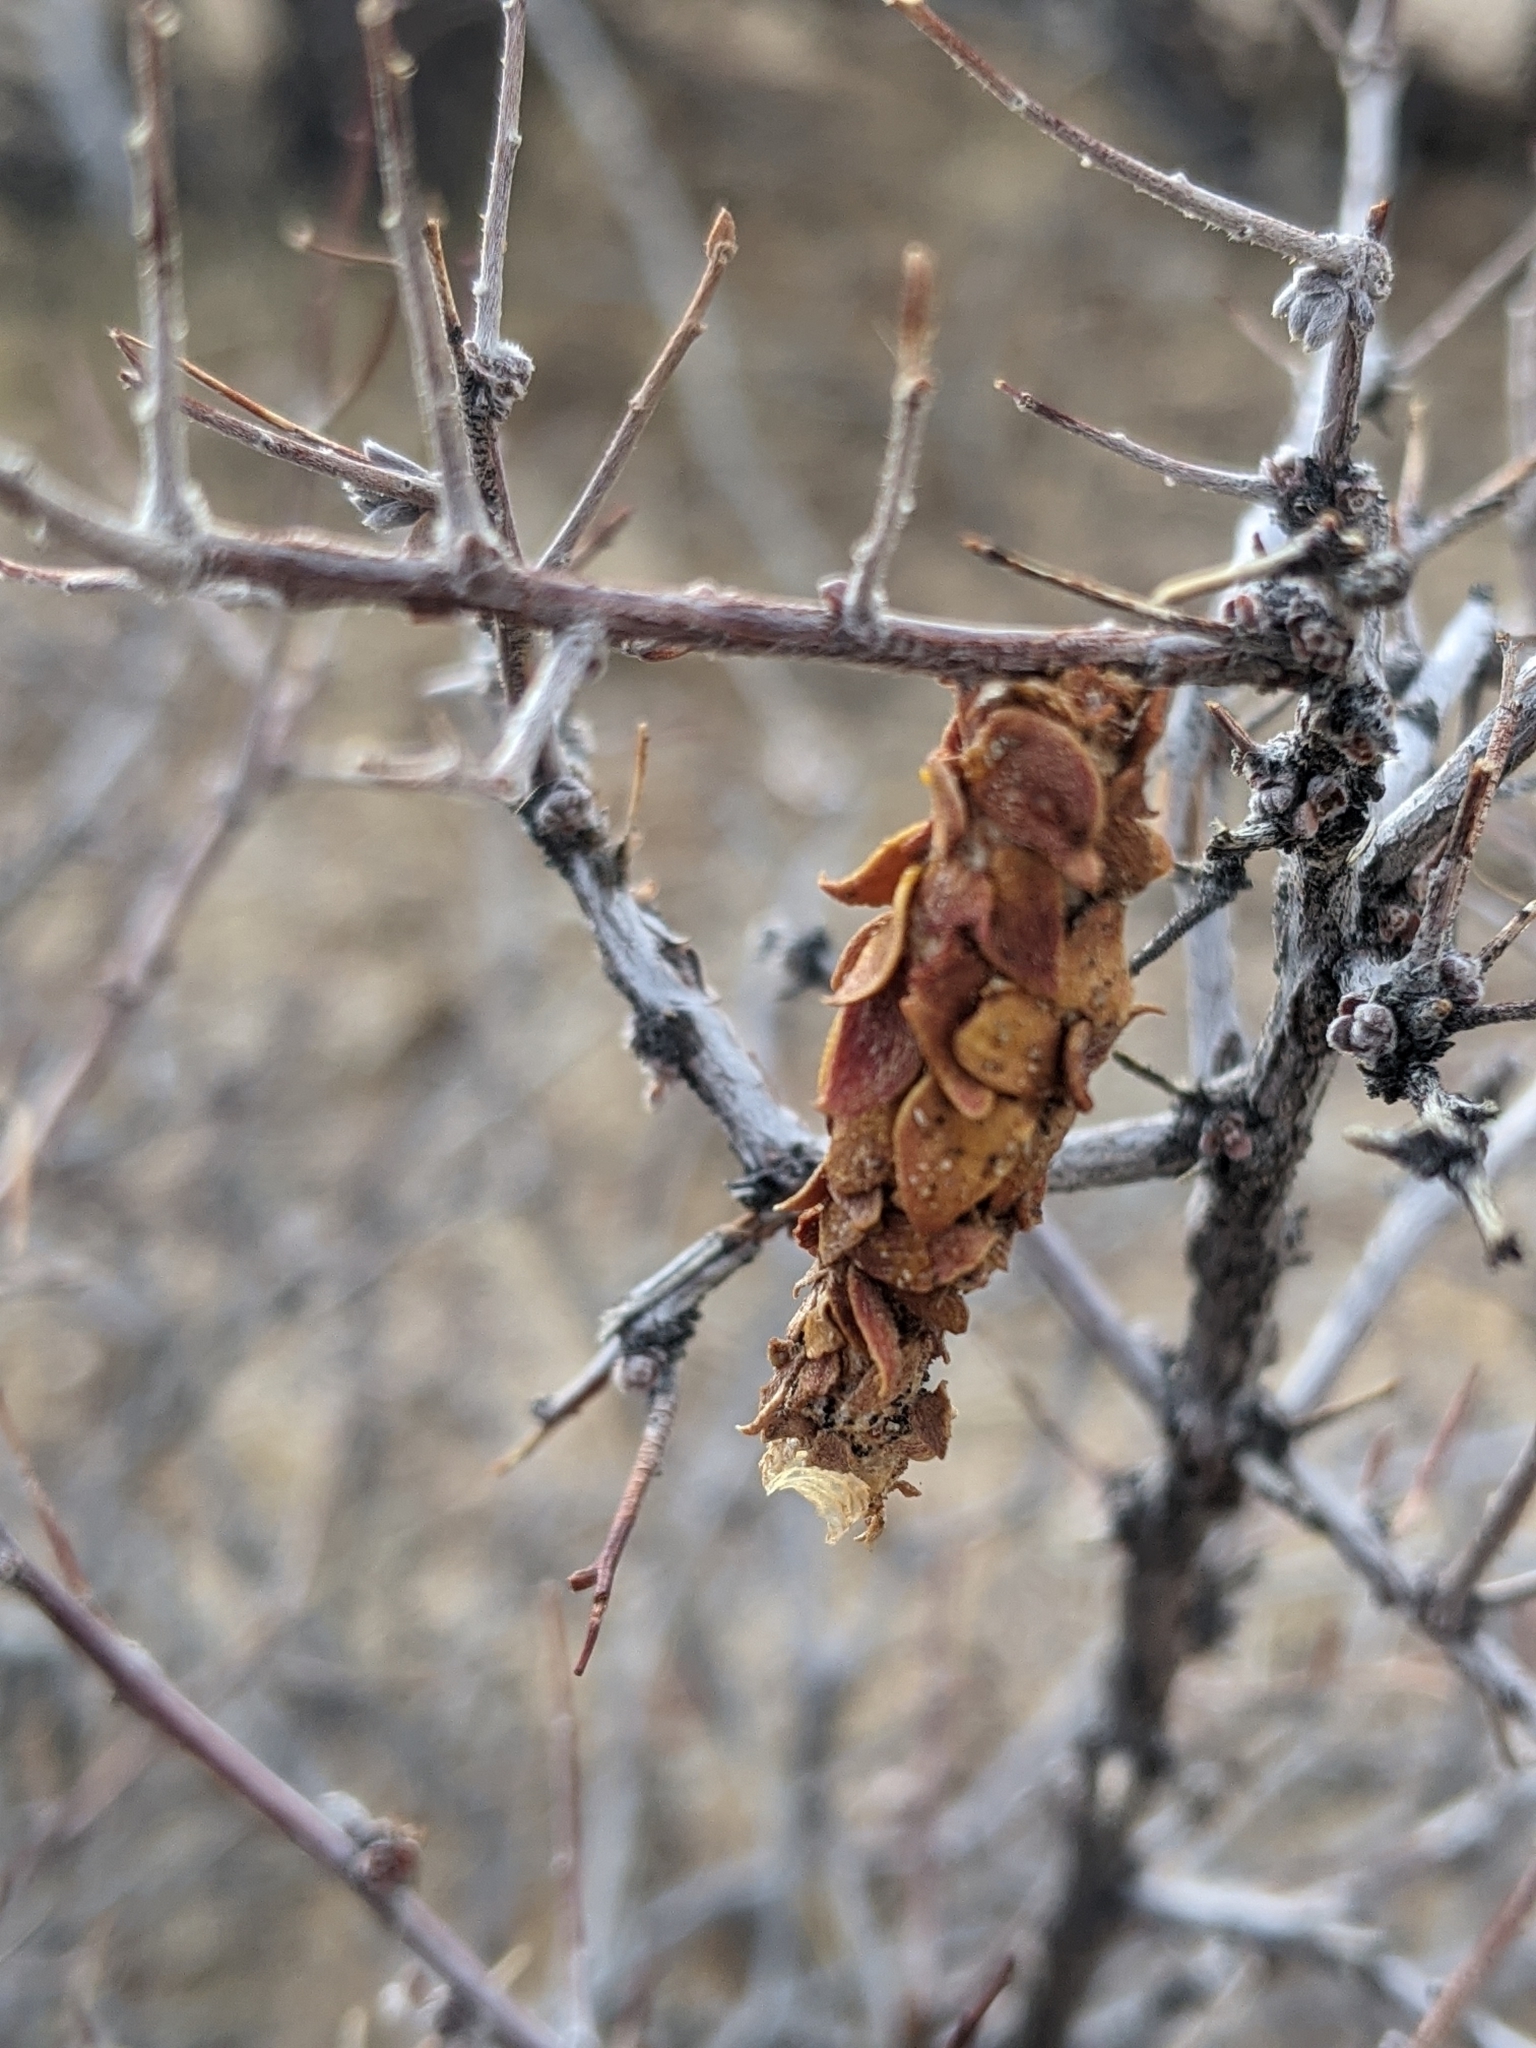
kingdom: Animalia
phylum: Arthropoda
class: Insecta
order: Lepidoptera
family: Psychidae
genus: Thyridopteryx
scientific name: Thyridopteryx meadii
